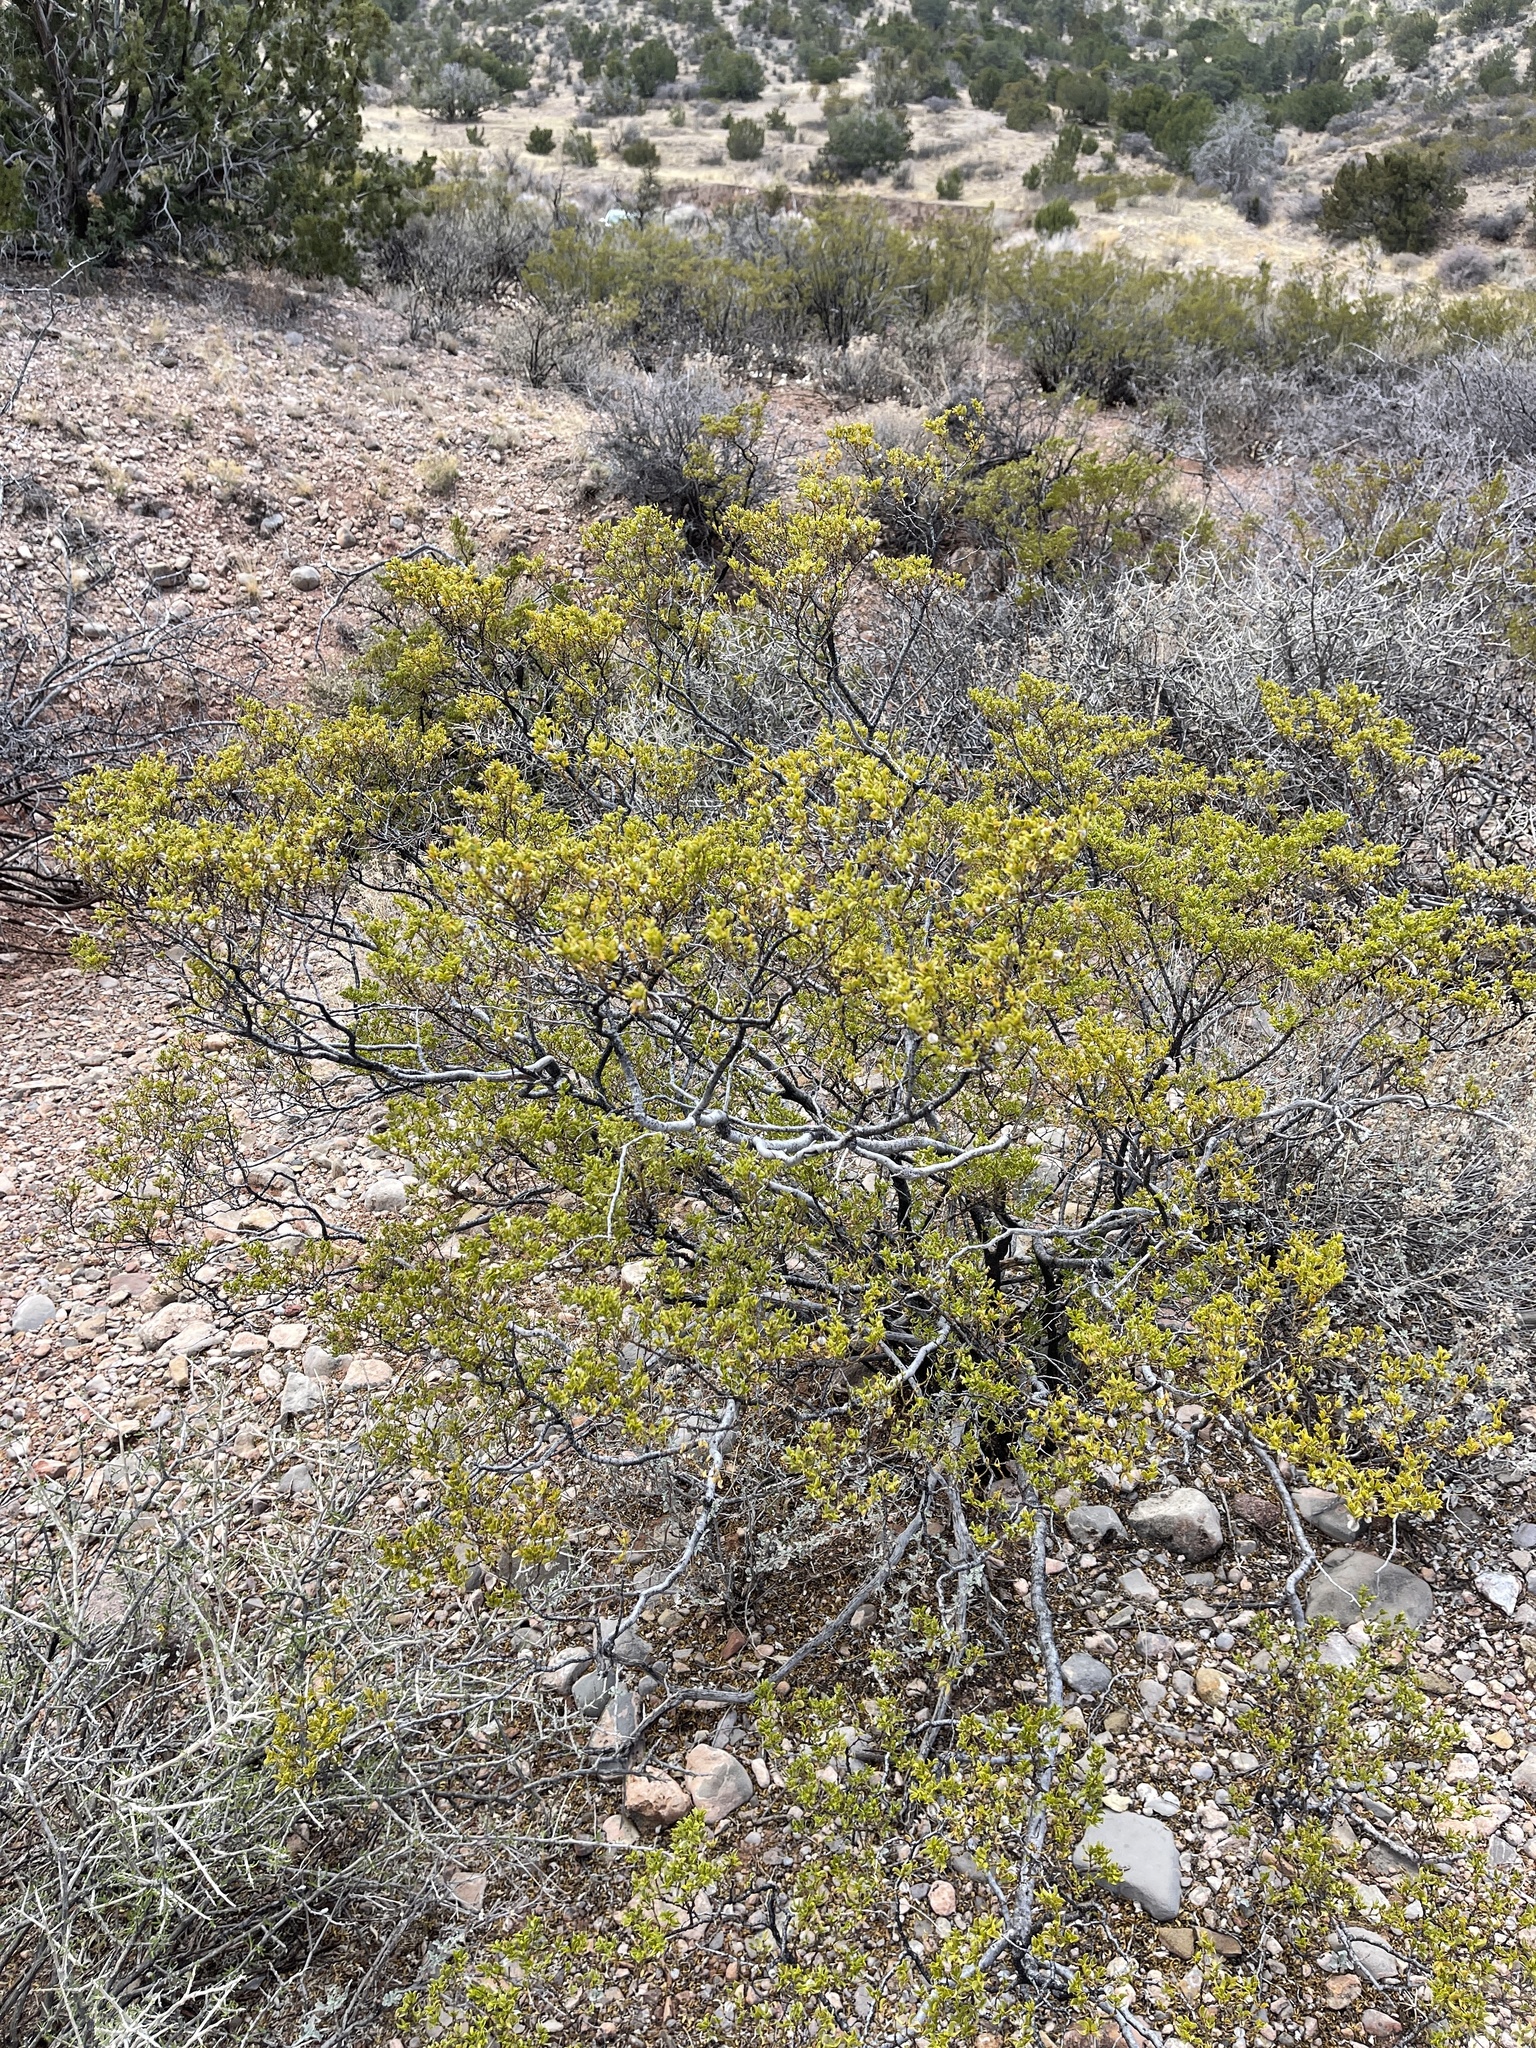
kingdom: Plantae
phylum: Tracheophyta
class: Magnoliopsida
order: Zygophyllales
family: Zygophyllaceae
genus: Larrea
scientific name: Larrea tridentata
